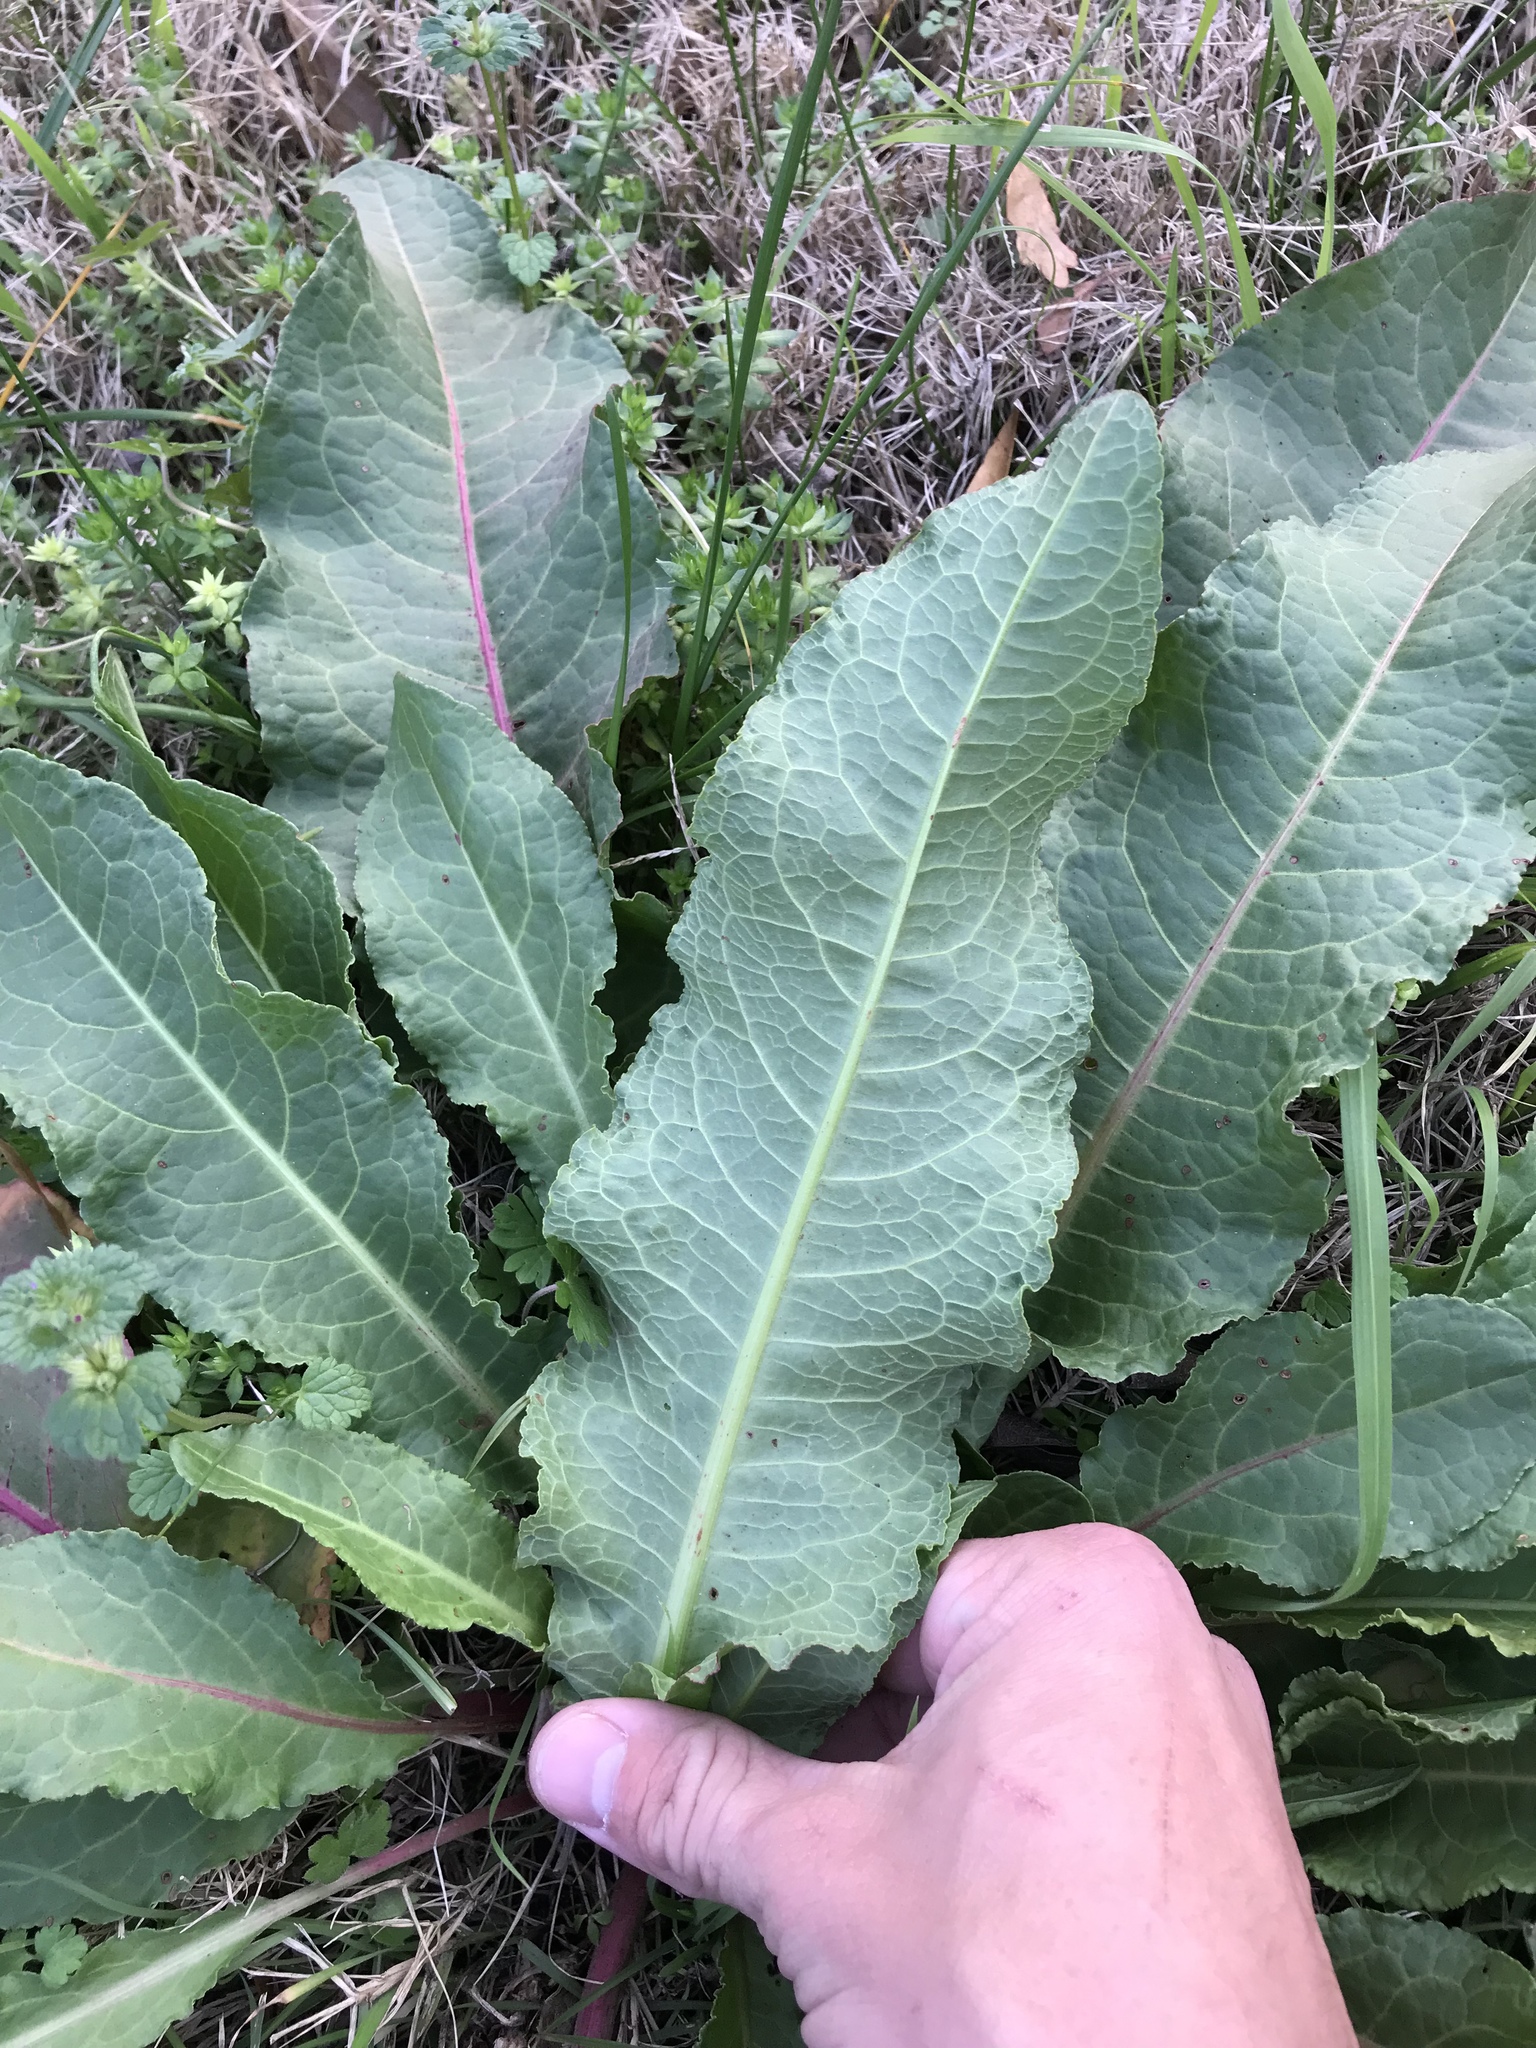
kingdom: Plantae
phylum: Tracheophyta
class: Magnoliopsida
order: Caryophyllales
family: Polygonaceae
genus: Rumex
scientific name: Rumex crispus
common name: Curled dock
